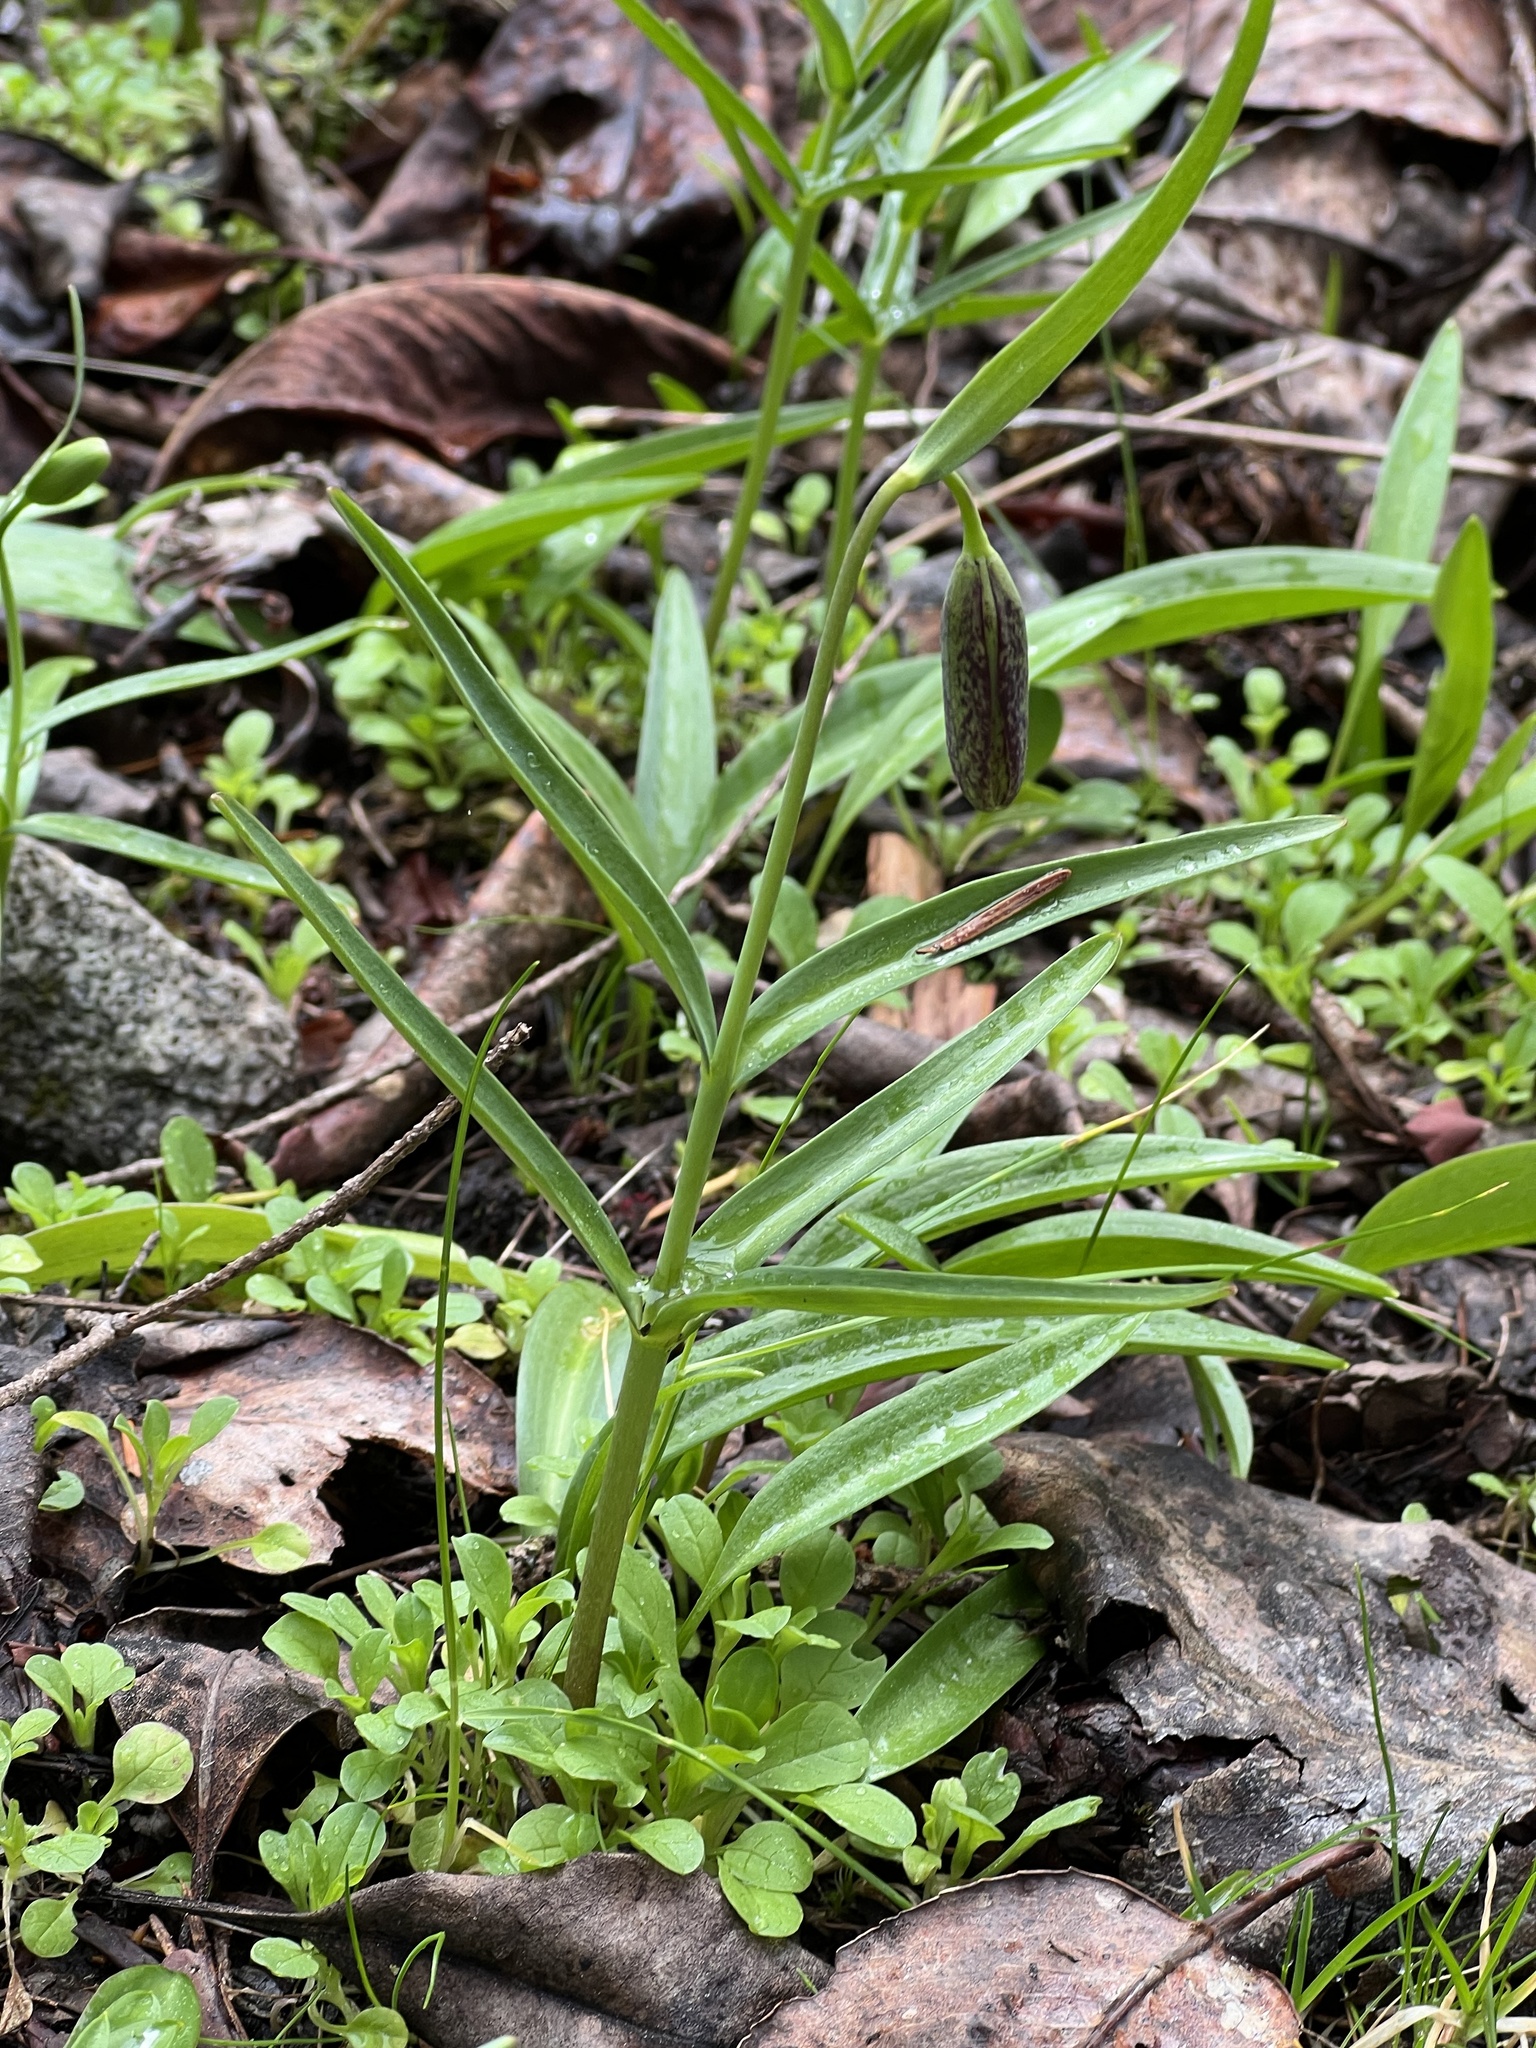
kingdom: Plantae
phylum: Tracheophyta
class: Liliopsida
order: Liliales
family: Liliaceae
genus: Fritillaria
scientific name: Fritillaria affinis
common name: Ojai fritillary
